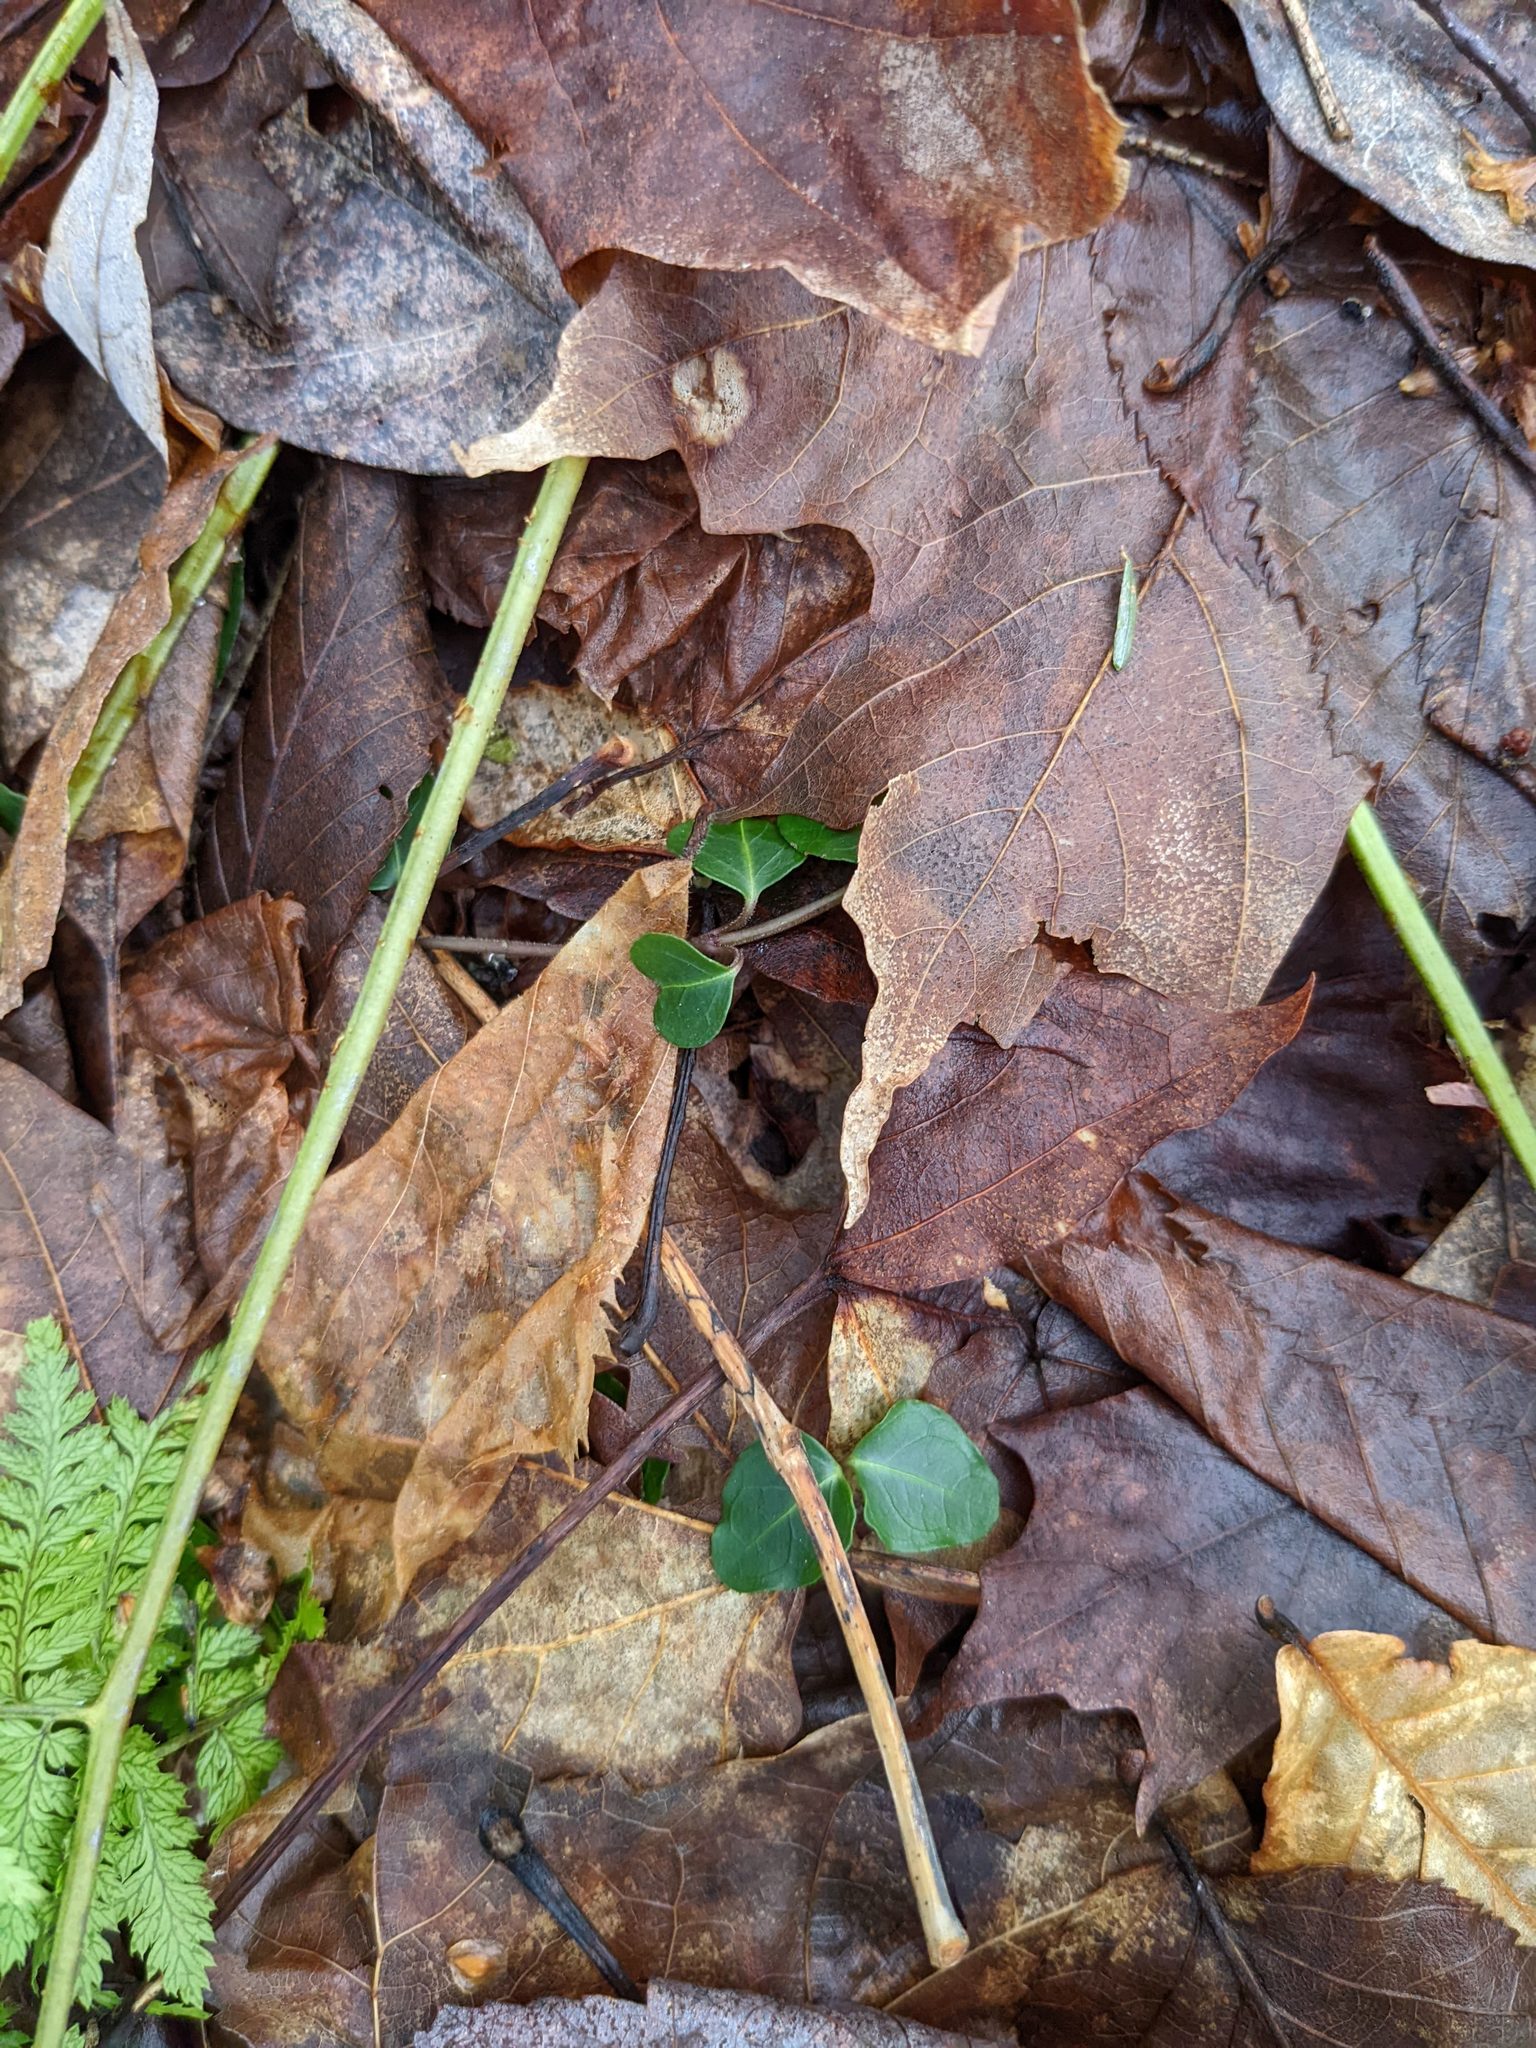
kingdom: Plantae
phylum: Tracheophyta
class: Magnoliopsida
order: Gentianales
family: Rubiaceae
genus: Mitchella
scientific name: Mitchella repens
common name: Partridge-berry
